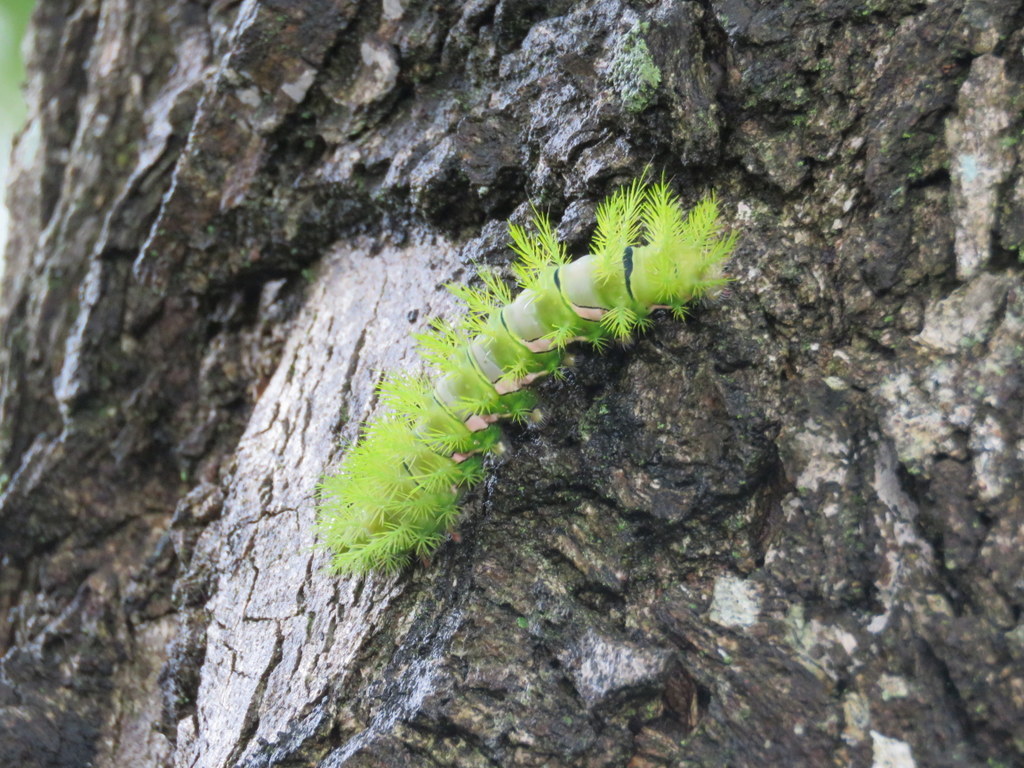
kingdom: Animalia
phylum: Arthropoda
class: Insecta
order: Lepidoptera
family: Saturniidae
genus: Automeris
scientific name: Automeris naranja
